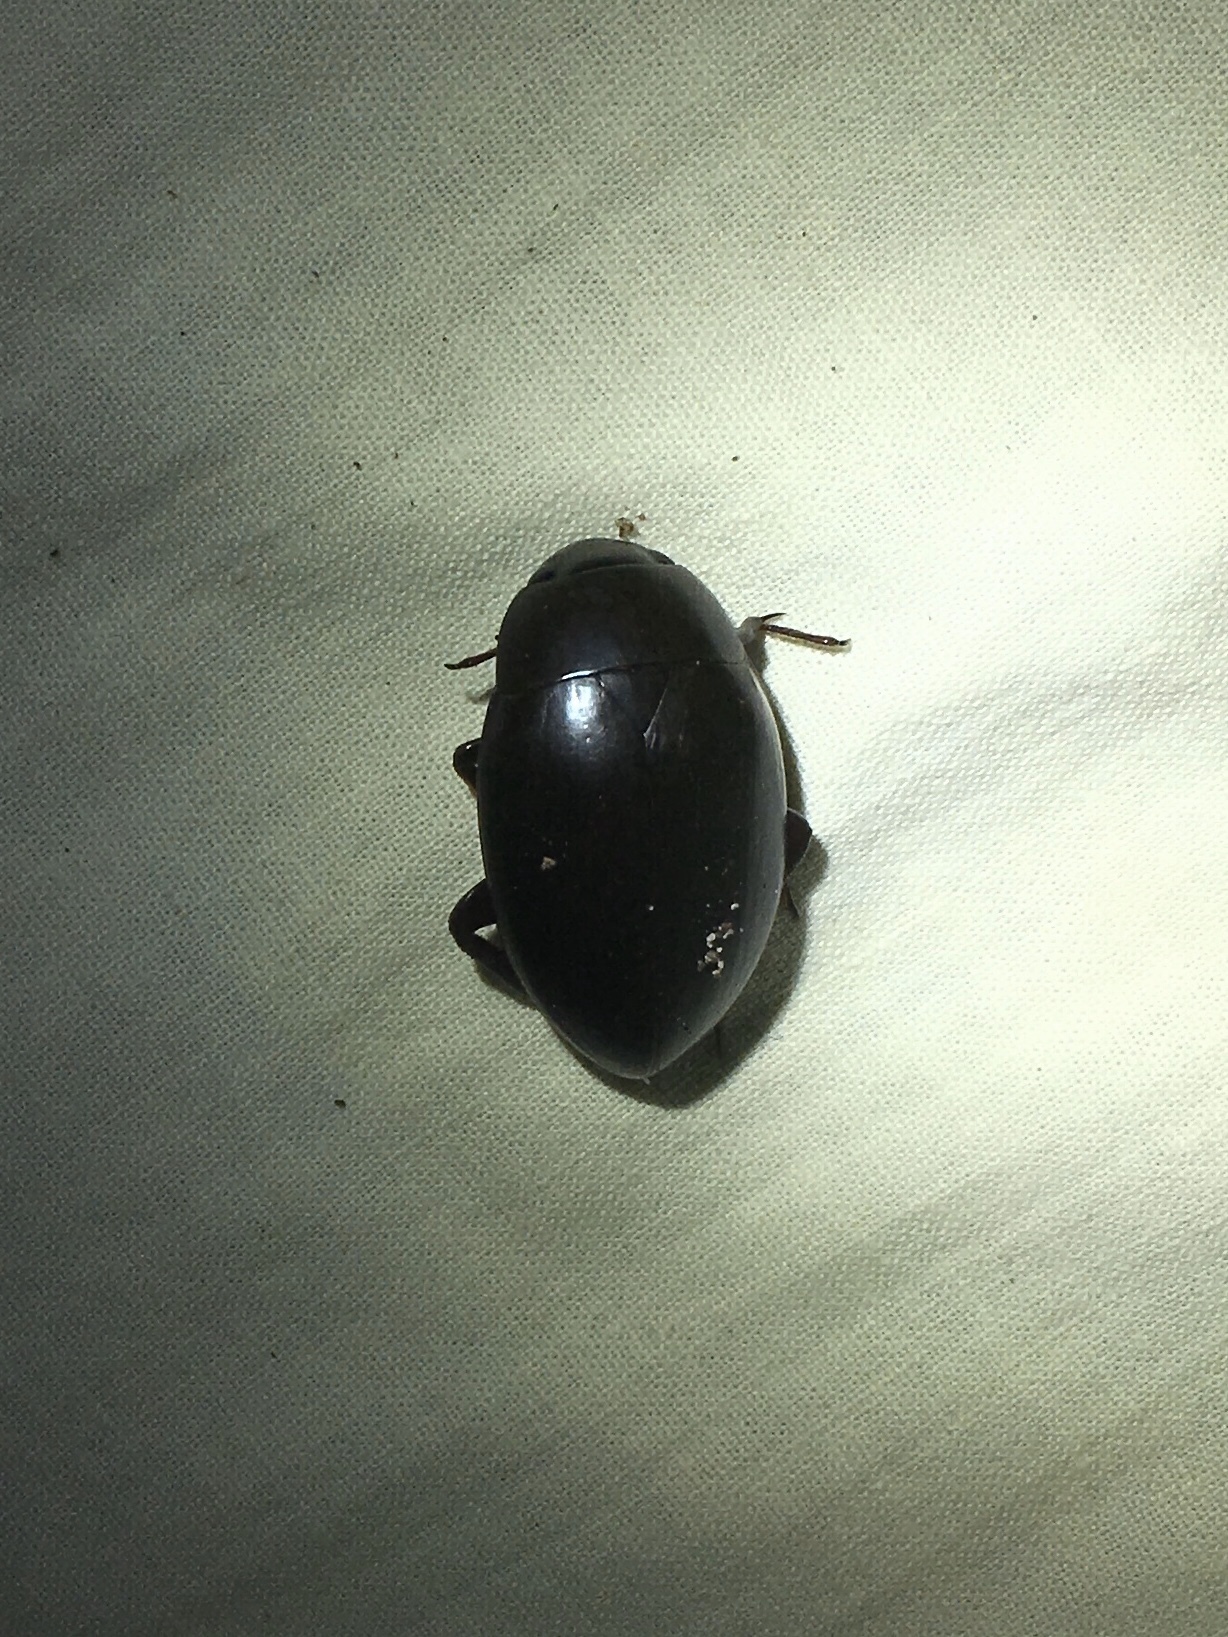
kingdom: Animalia
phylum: Arthropoda
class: Insecta
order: Coleoptera
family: Hydrophilidae
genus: Hydrophilus
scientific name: Hydrophilus ovatus
